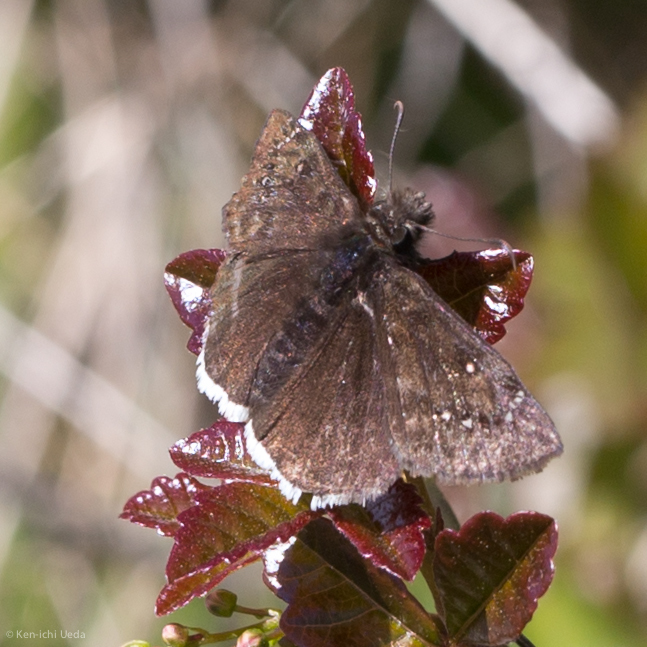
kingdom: Animalia
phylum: Arthropoda
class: Insecta
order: Lepidoptera
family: Hesperiidae
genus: Erynnis
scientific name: Erynnis tristis
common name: Mournful duskywing
